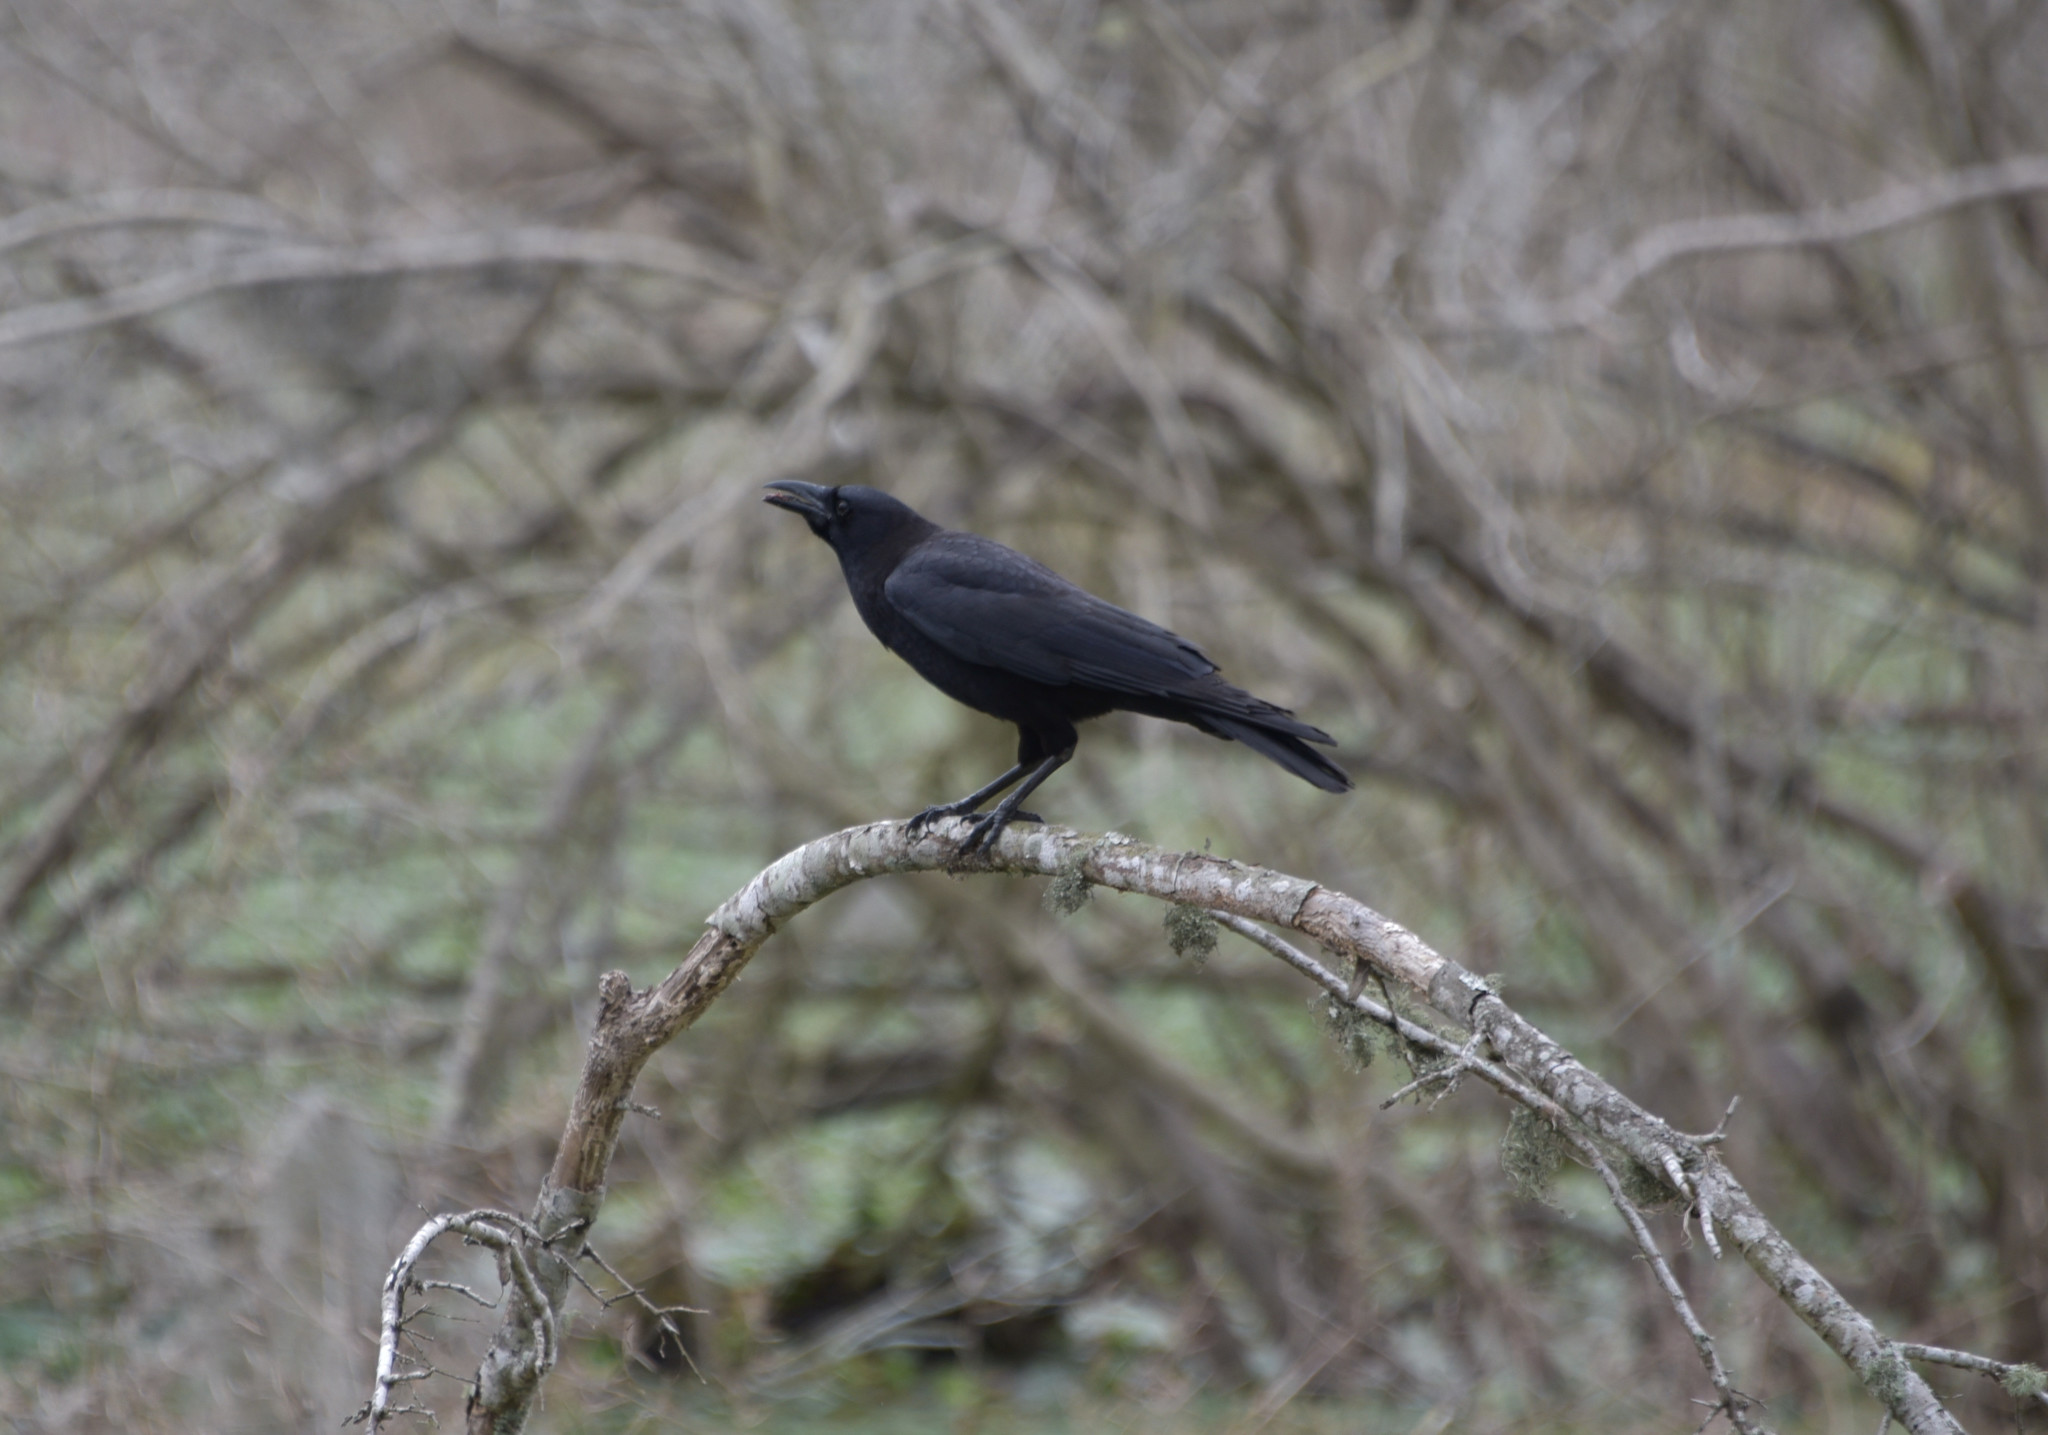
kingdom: Animalia
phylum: Chordata
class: Aves
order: Passeriformes
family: Corvidae
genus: Corvus
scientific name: Corvus brachyrhynchos
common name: American crow
